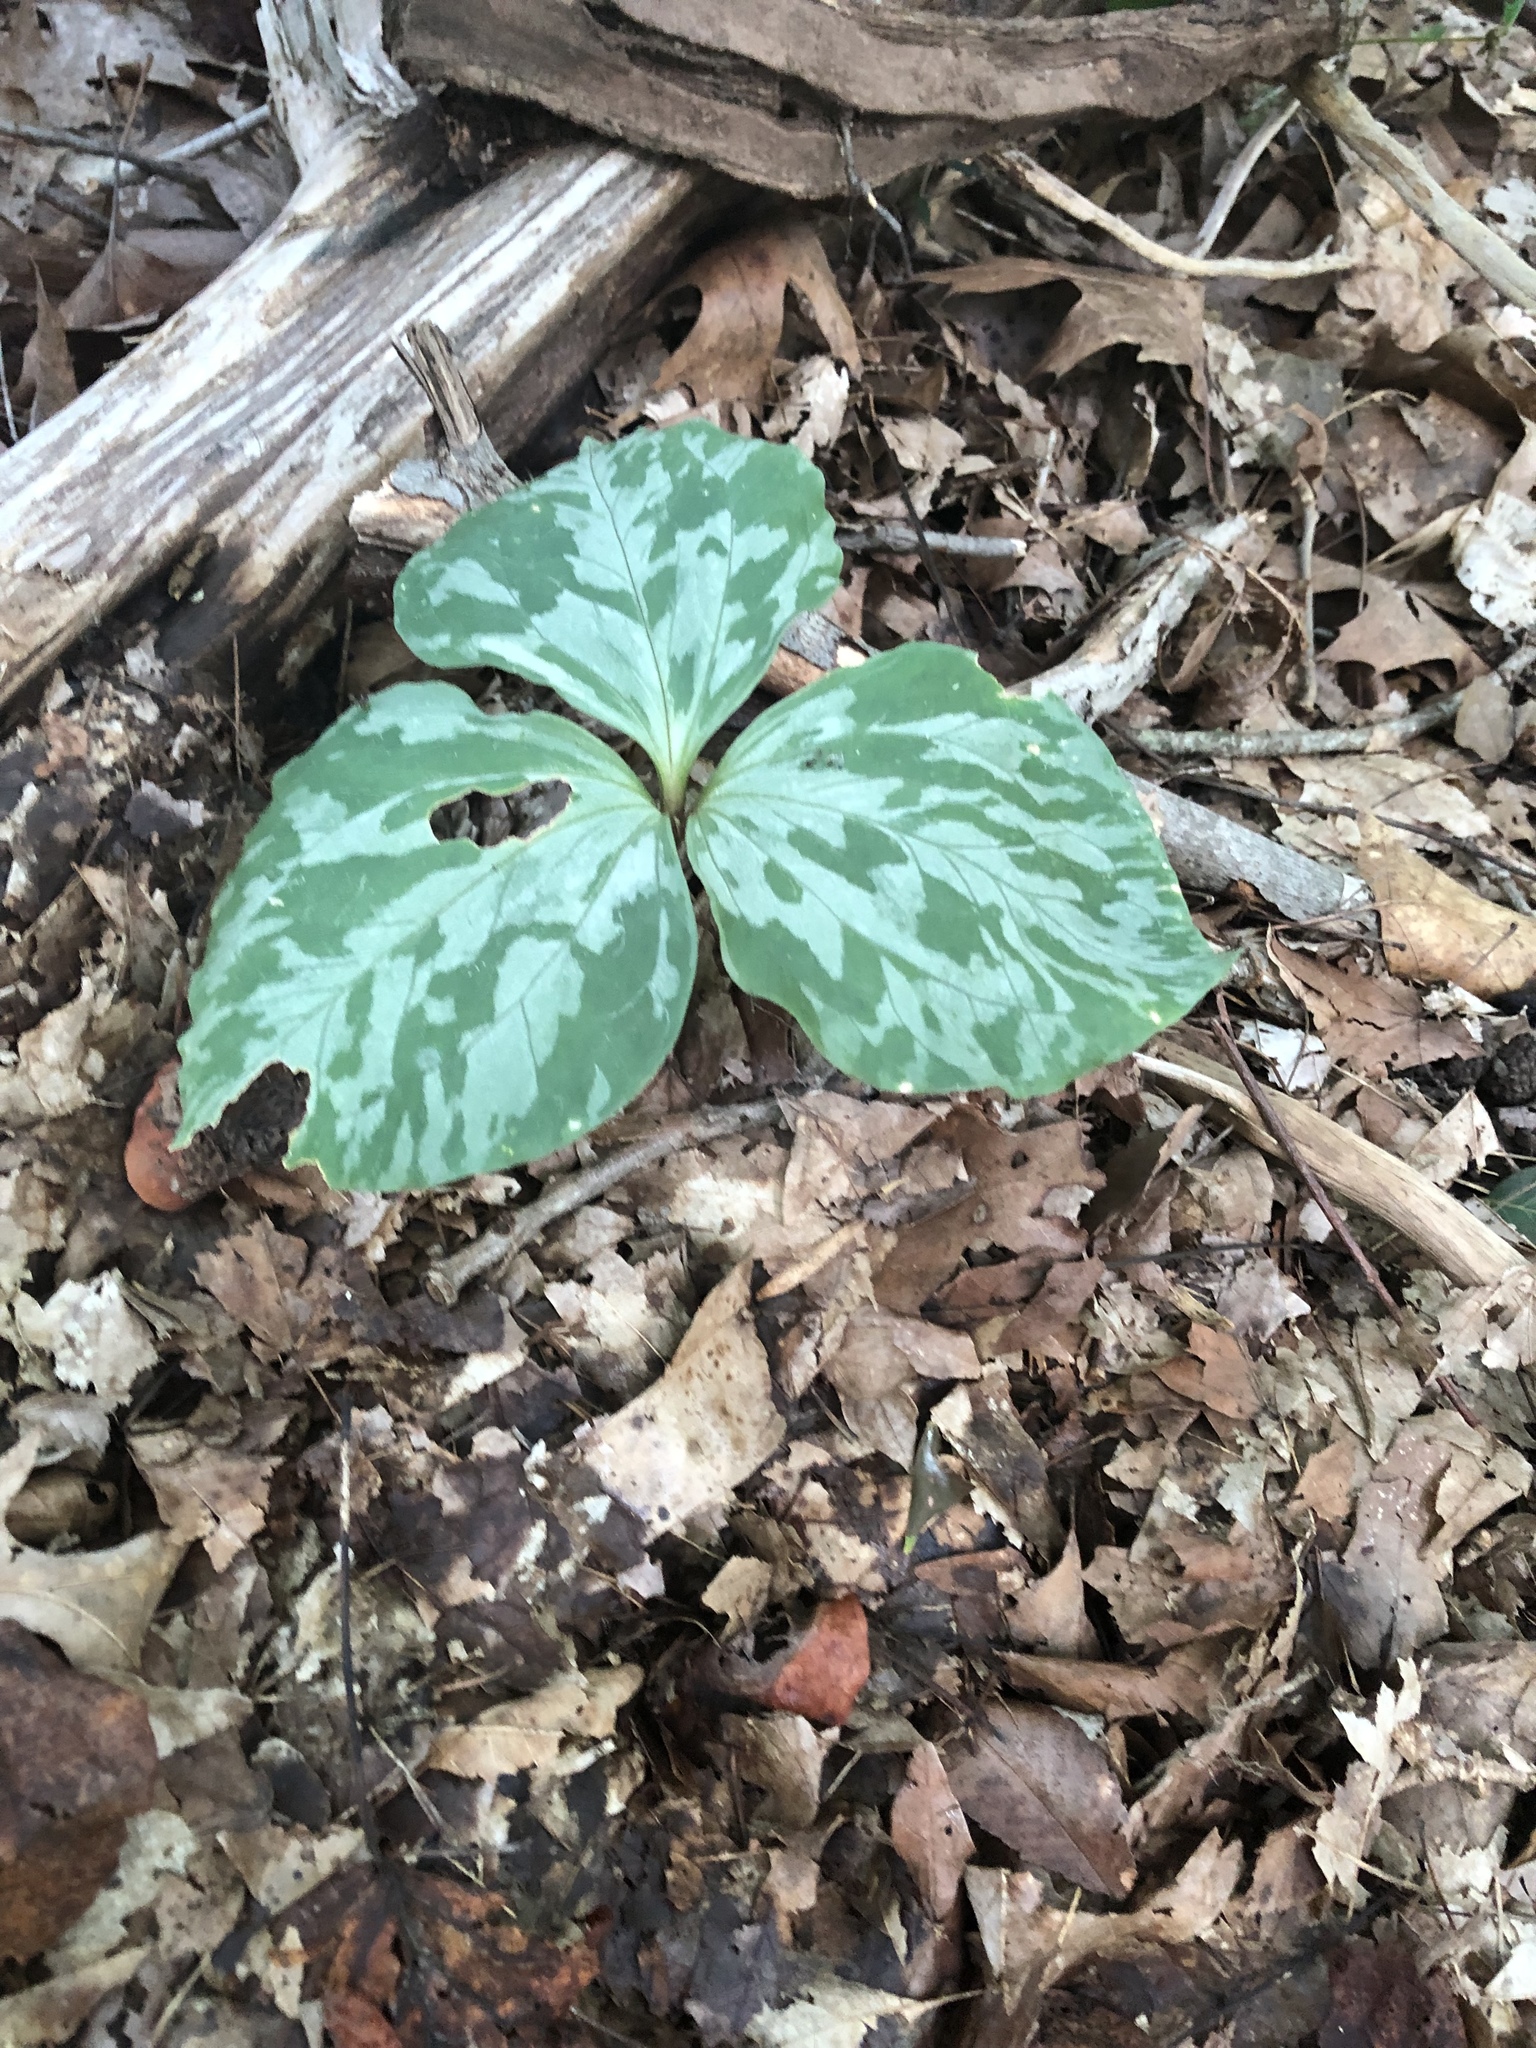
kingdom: Plantae
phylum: Tracheophyta
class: Liliopsida
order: Liliales
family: Melanthiaceae
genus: Trillium
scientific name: Trillium cuneatum
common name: Cuneate trillium
